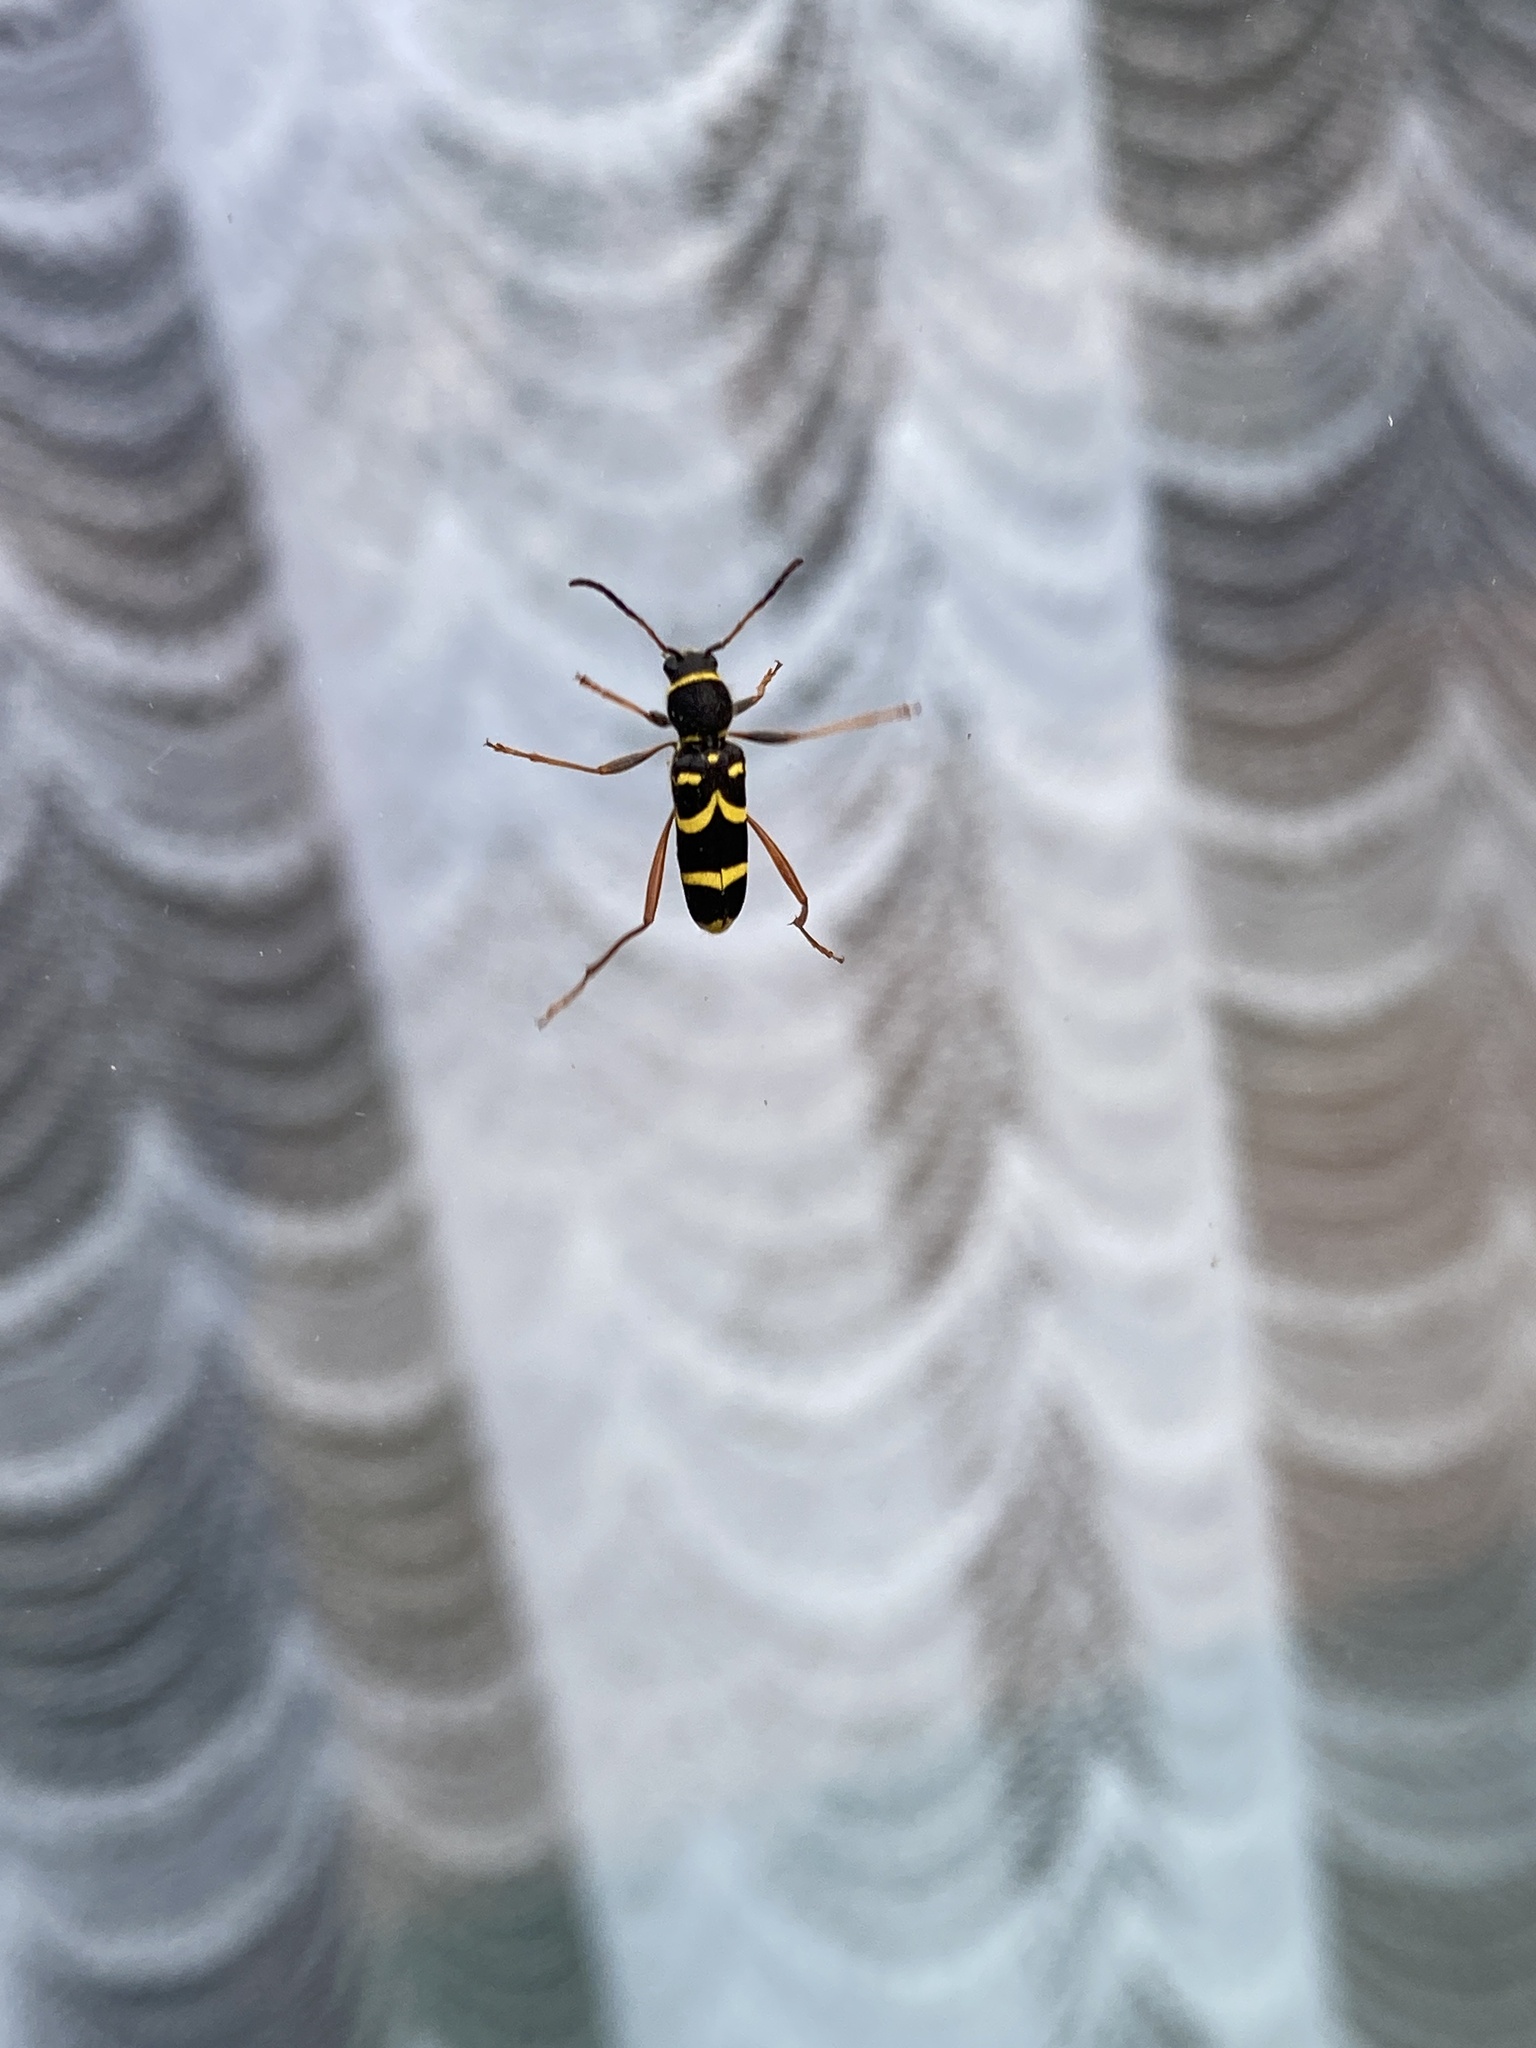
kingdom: Animalia
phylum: Arthropoda
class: Insecta
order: Coleoptera
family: Cerambycidae
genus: Clytus
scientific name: Clytus arietis
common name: Wasp beetle
